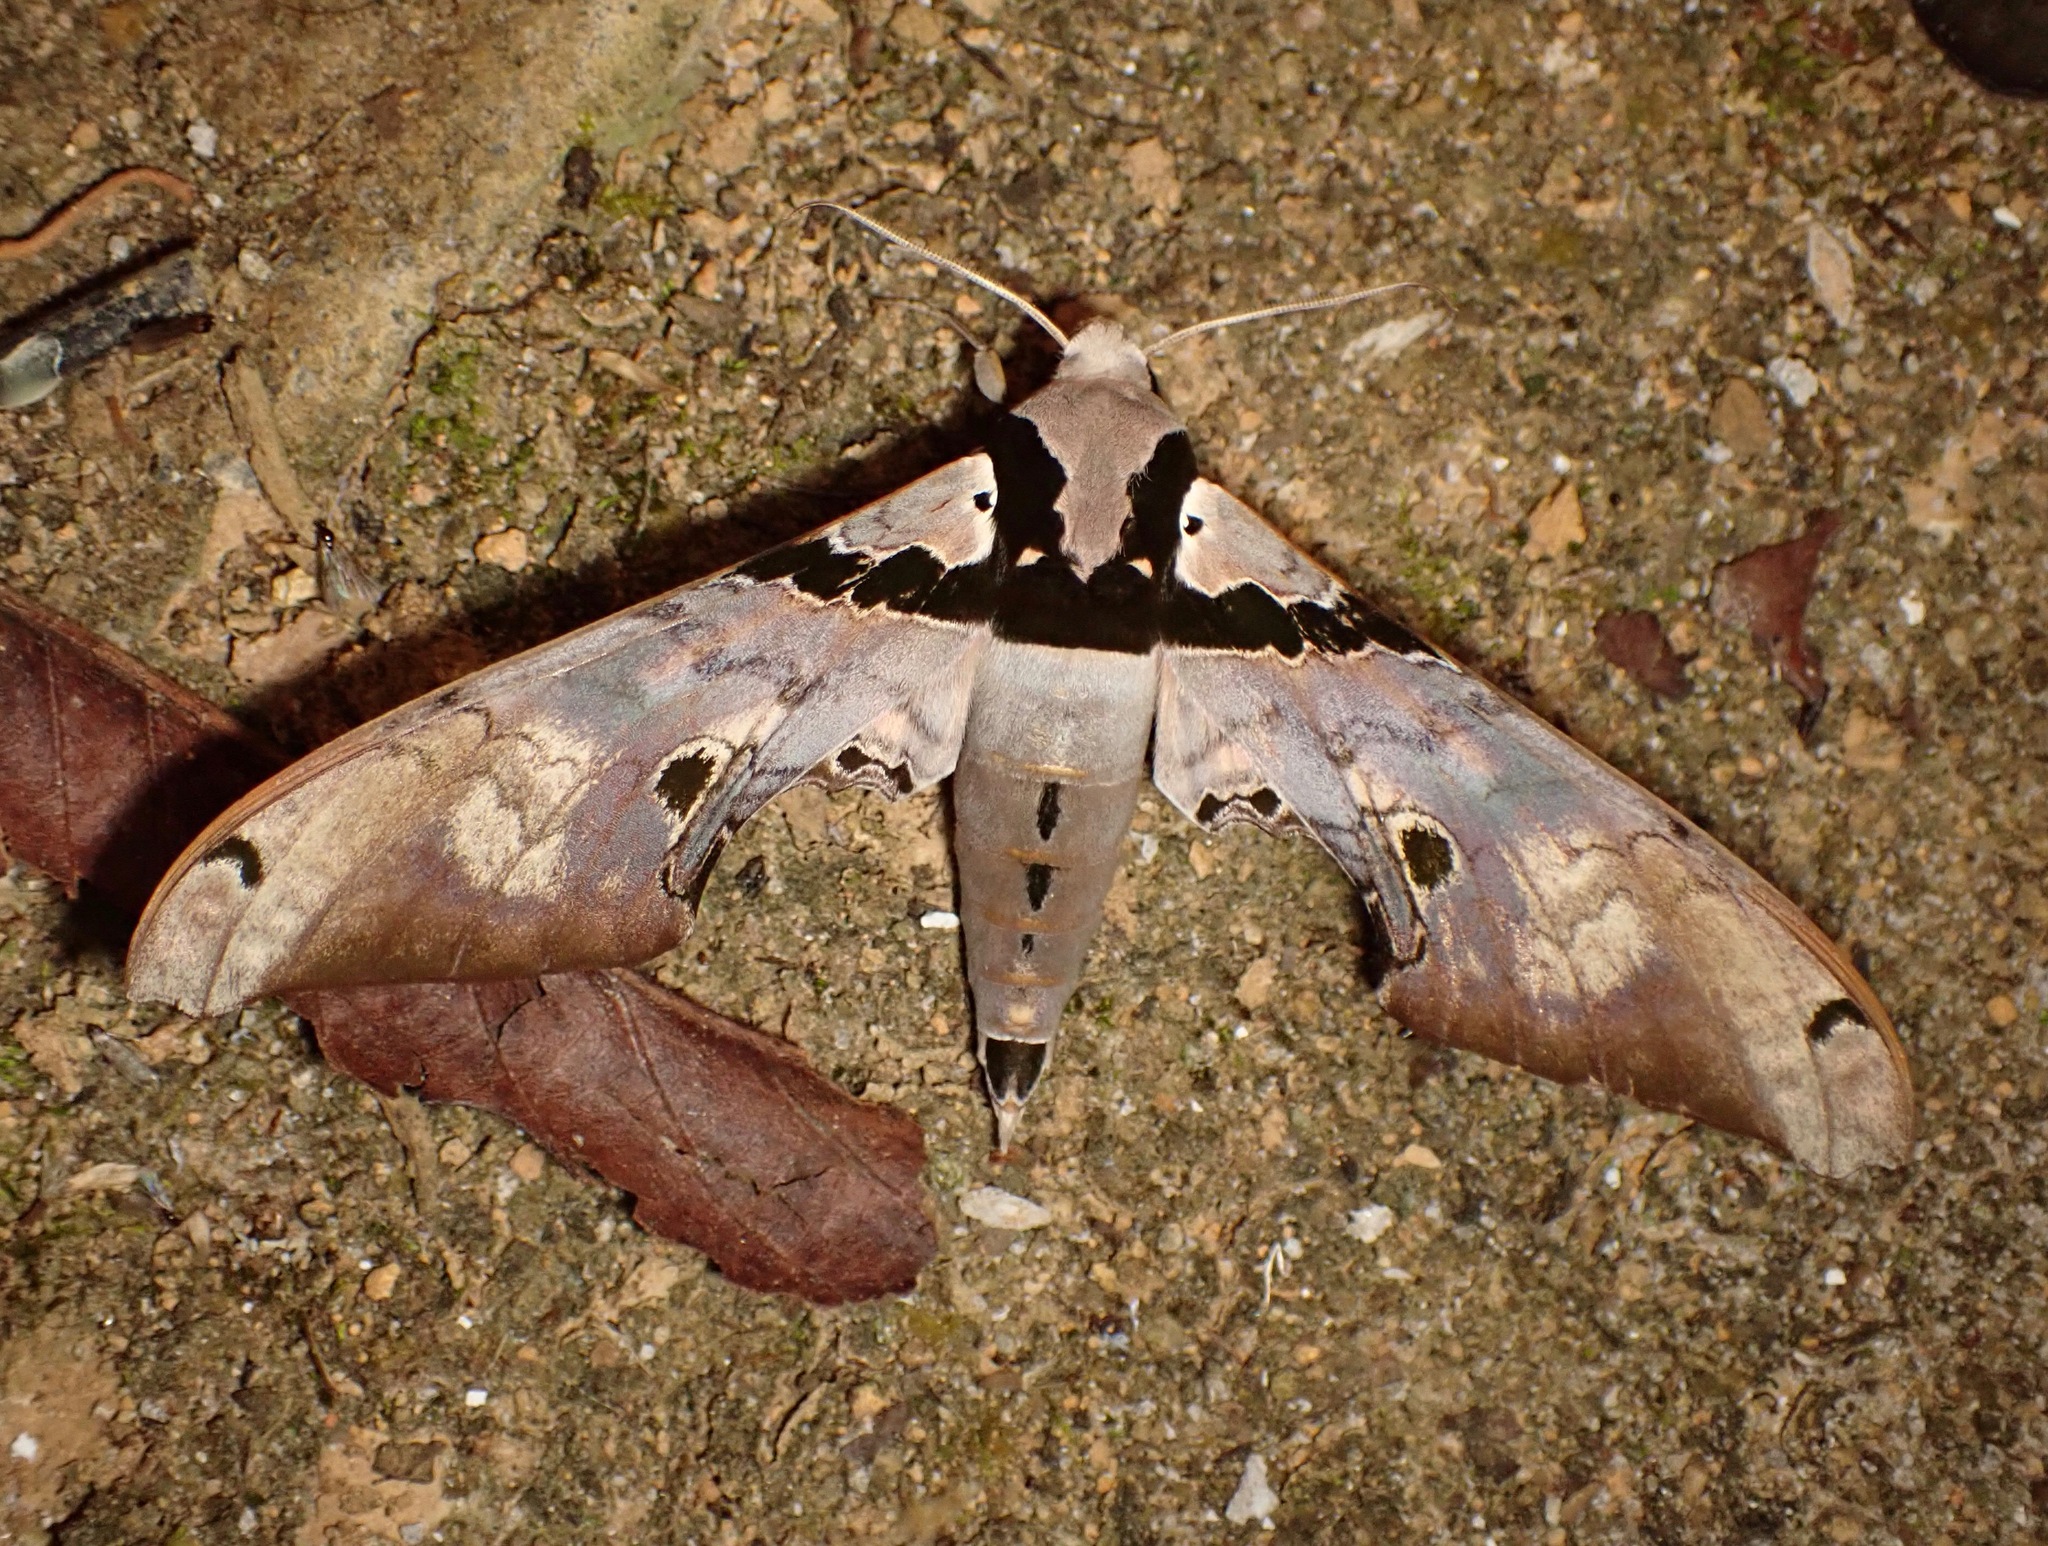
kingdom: Animalia
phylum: Arthropoda
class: Insecta
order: Lepidoptera
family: Sphingidae
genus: Adhemarius
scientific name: Adhemarius gannascus
